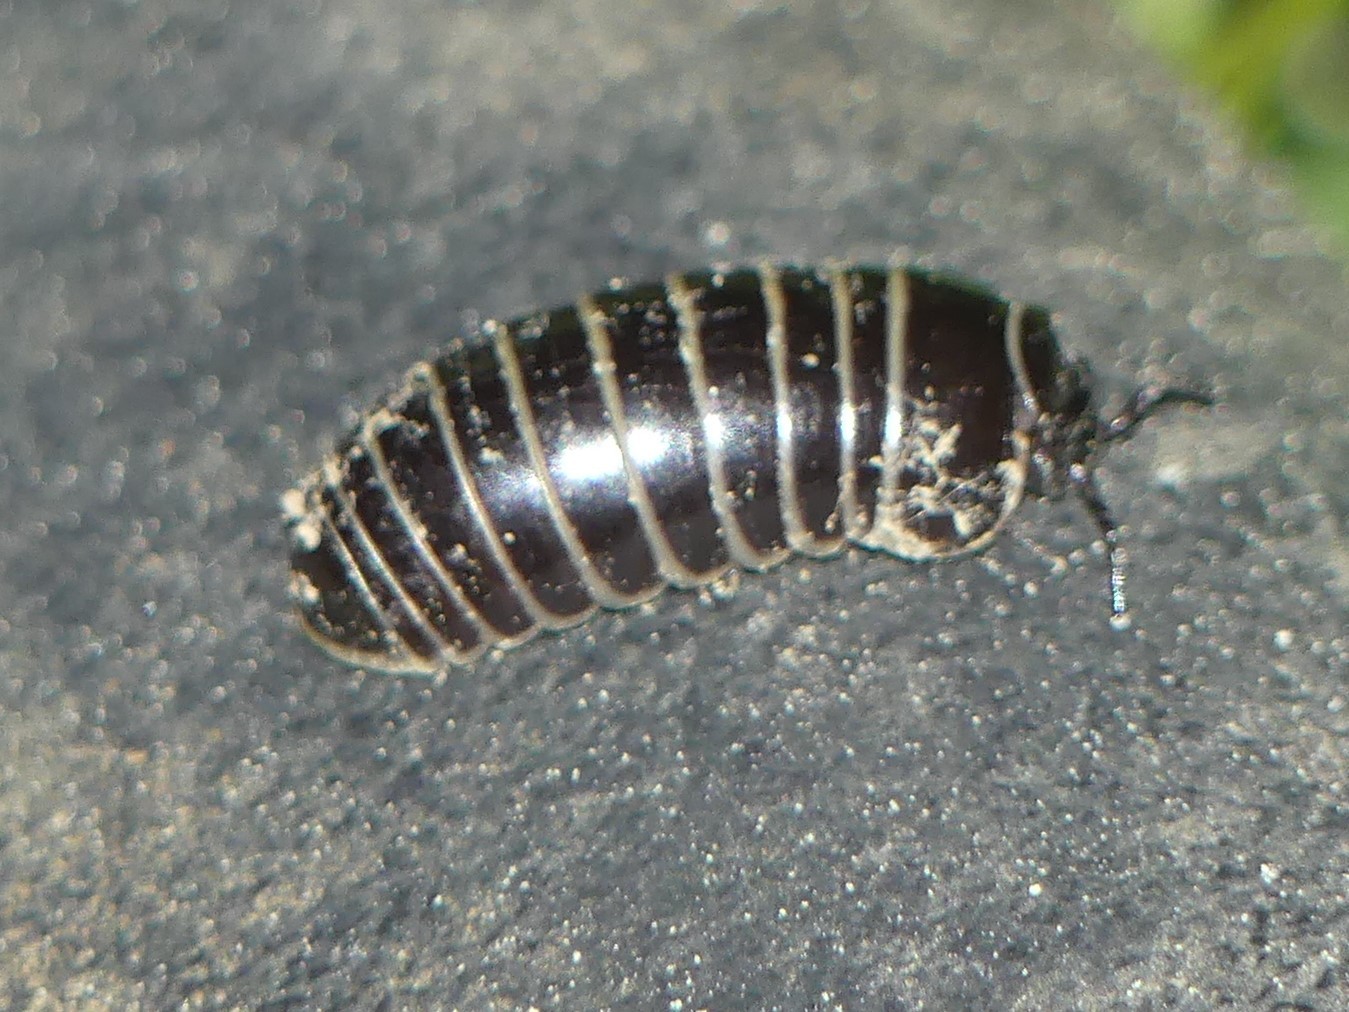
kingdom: Animalia
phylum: Arthropoda
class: Diplopoda
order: Glomerida
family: Glomeridae
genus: Glomeris
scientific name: Glomeris marginata
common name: Bordered pill millipede
